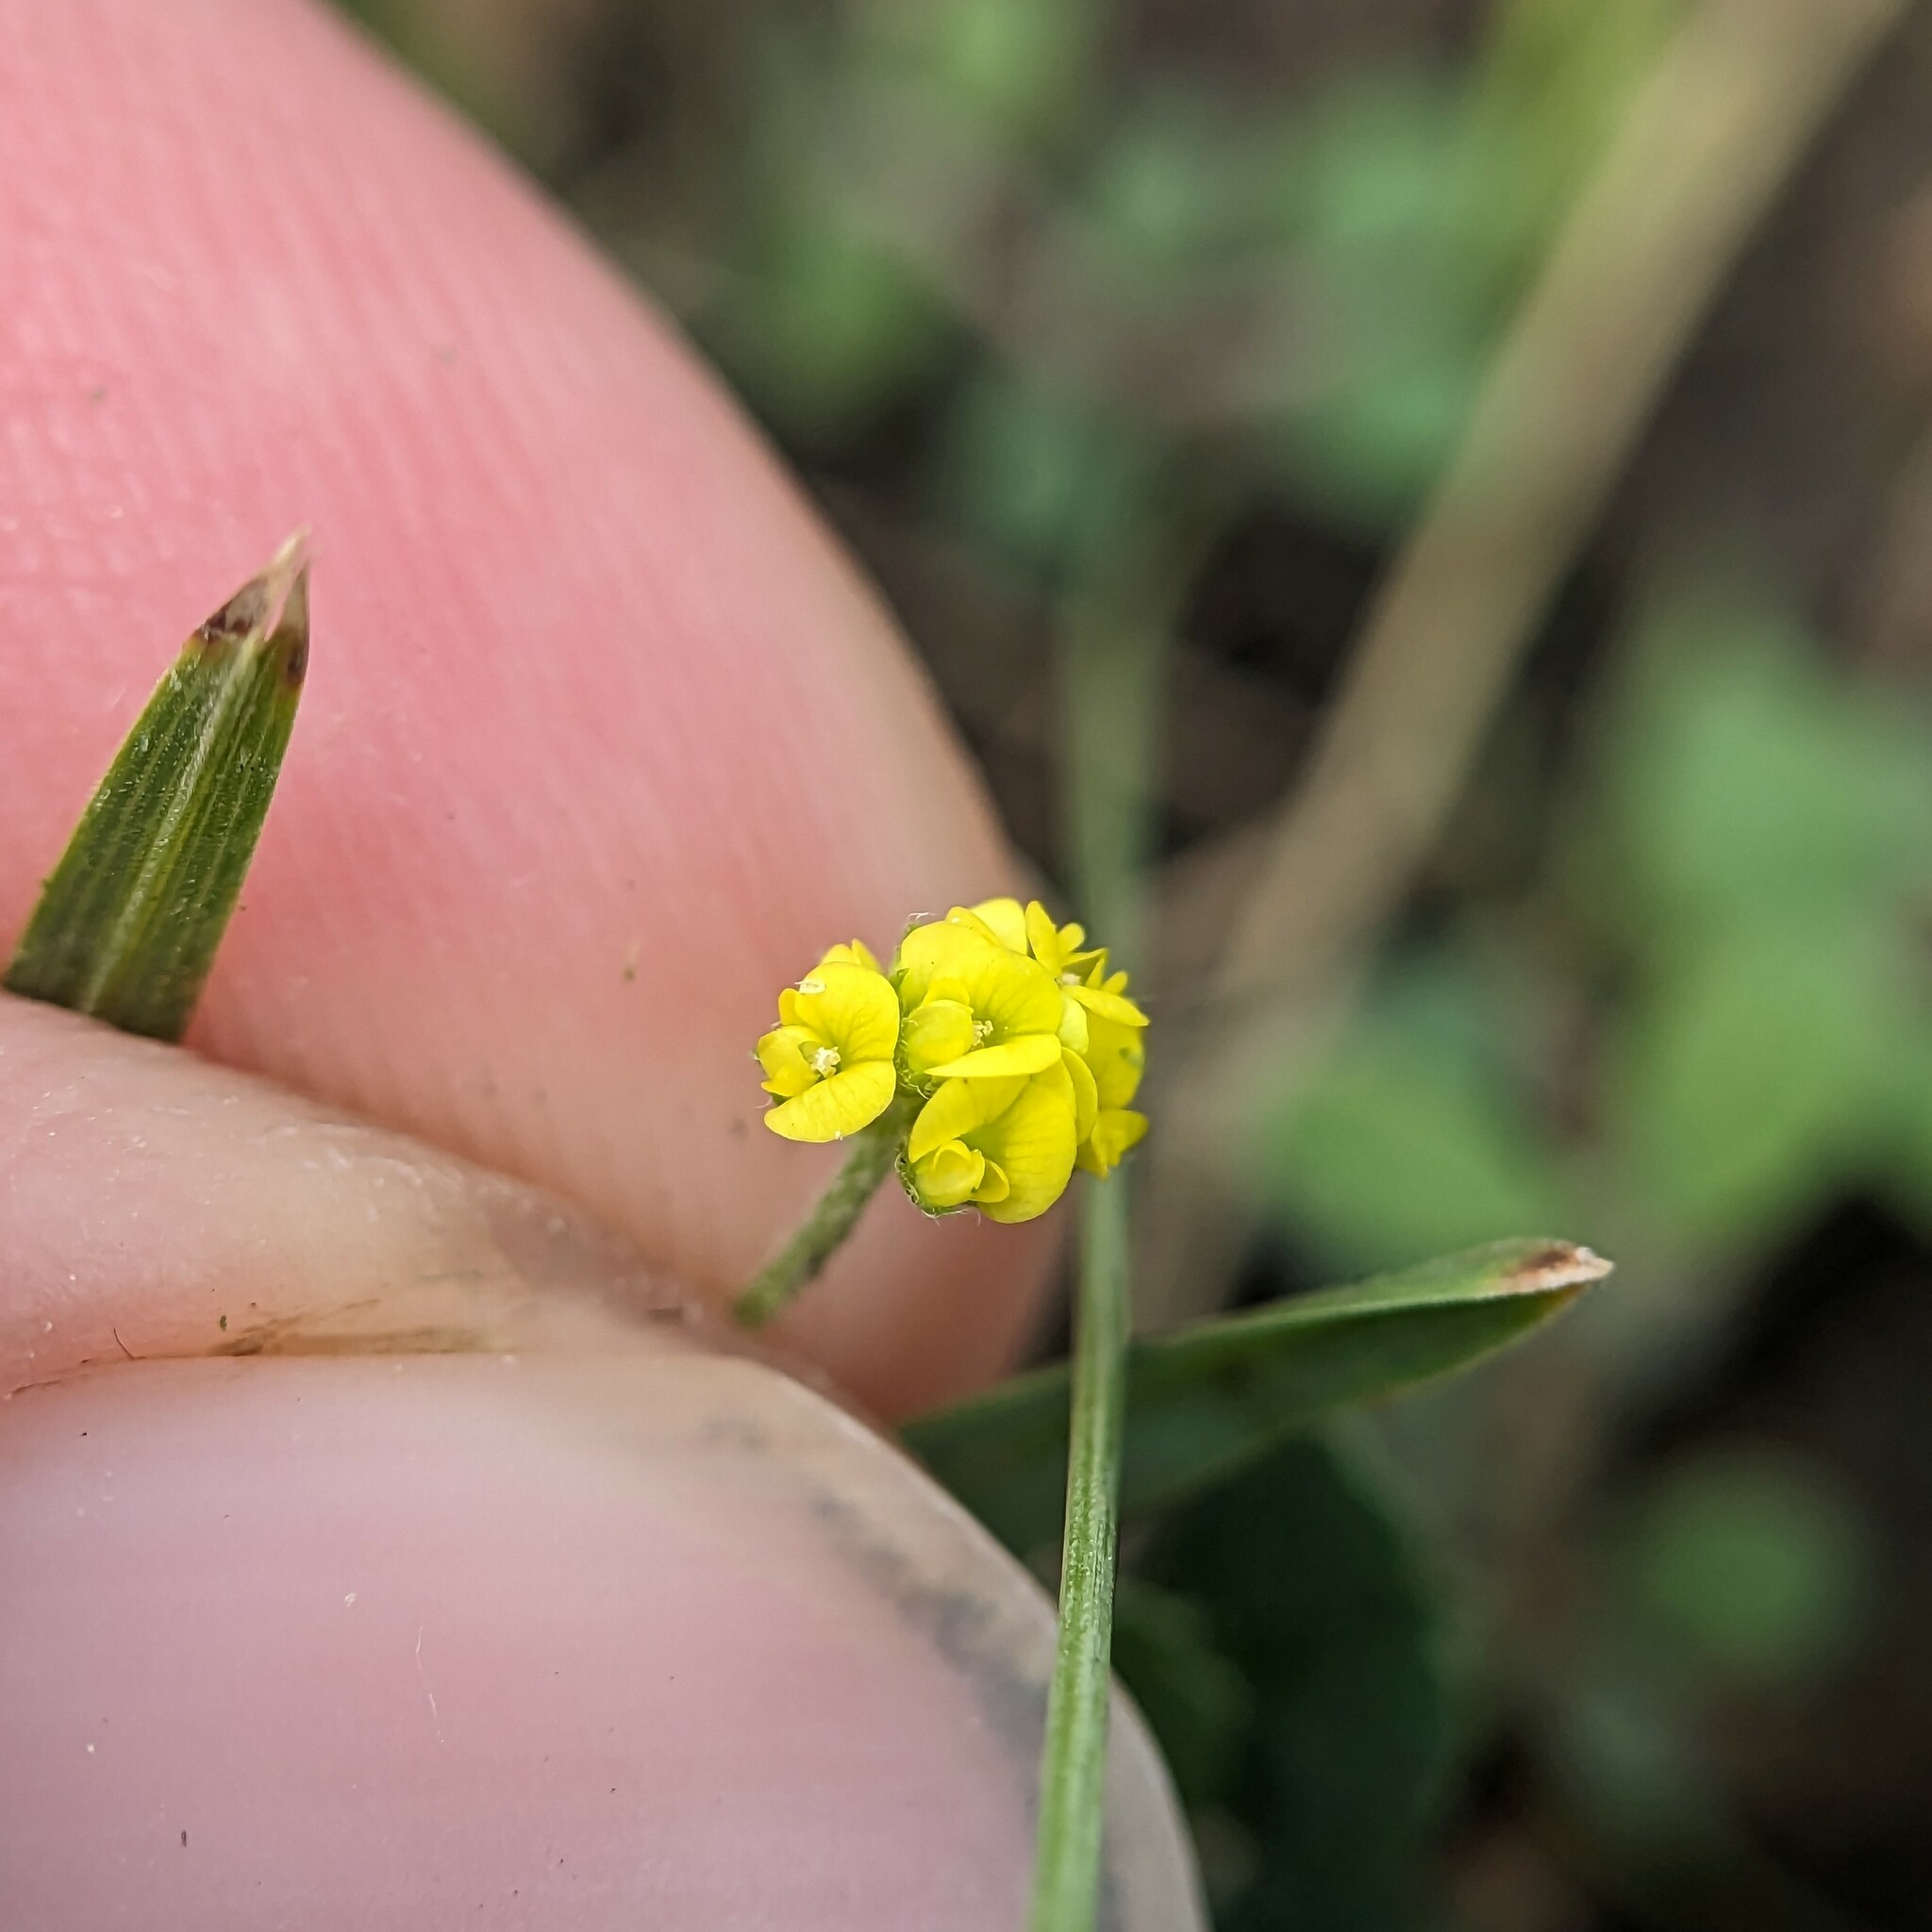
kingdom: Plantae
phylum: Tracheophyta
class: Magnoliopsida
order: Fabales
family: Fabaceae
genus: Medicago
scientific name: Medicago lupulina
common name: Black medick
